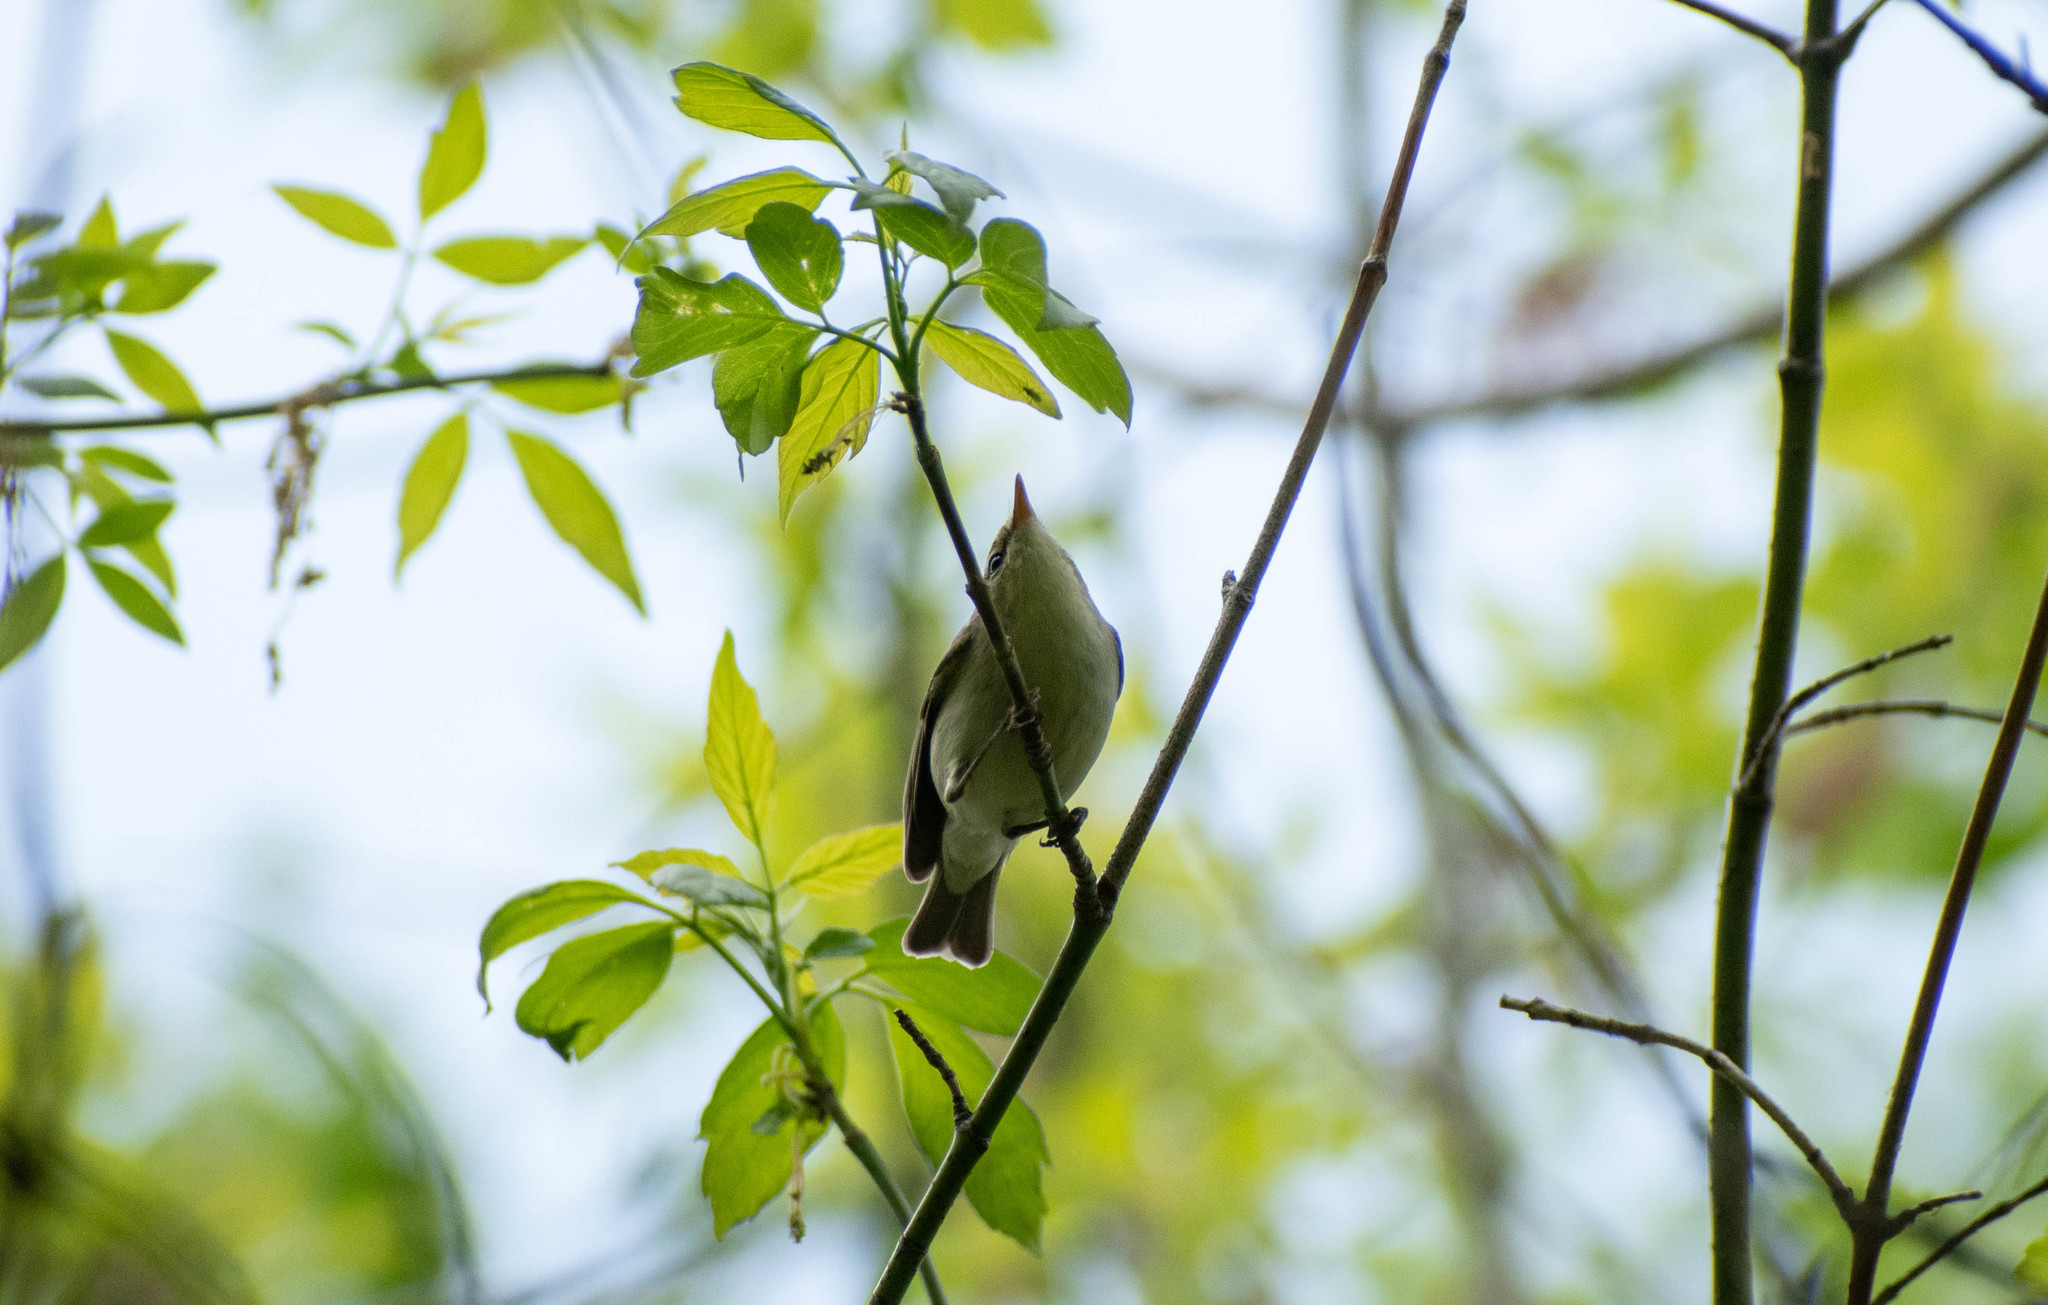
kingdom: Animalia
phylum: Chordata
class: Aves
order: Passeriformes
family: Phylloscopidae
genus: Phylloscopus
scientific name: Phylloscopus trochiloides
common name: Greenish warbler
